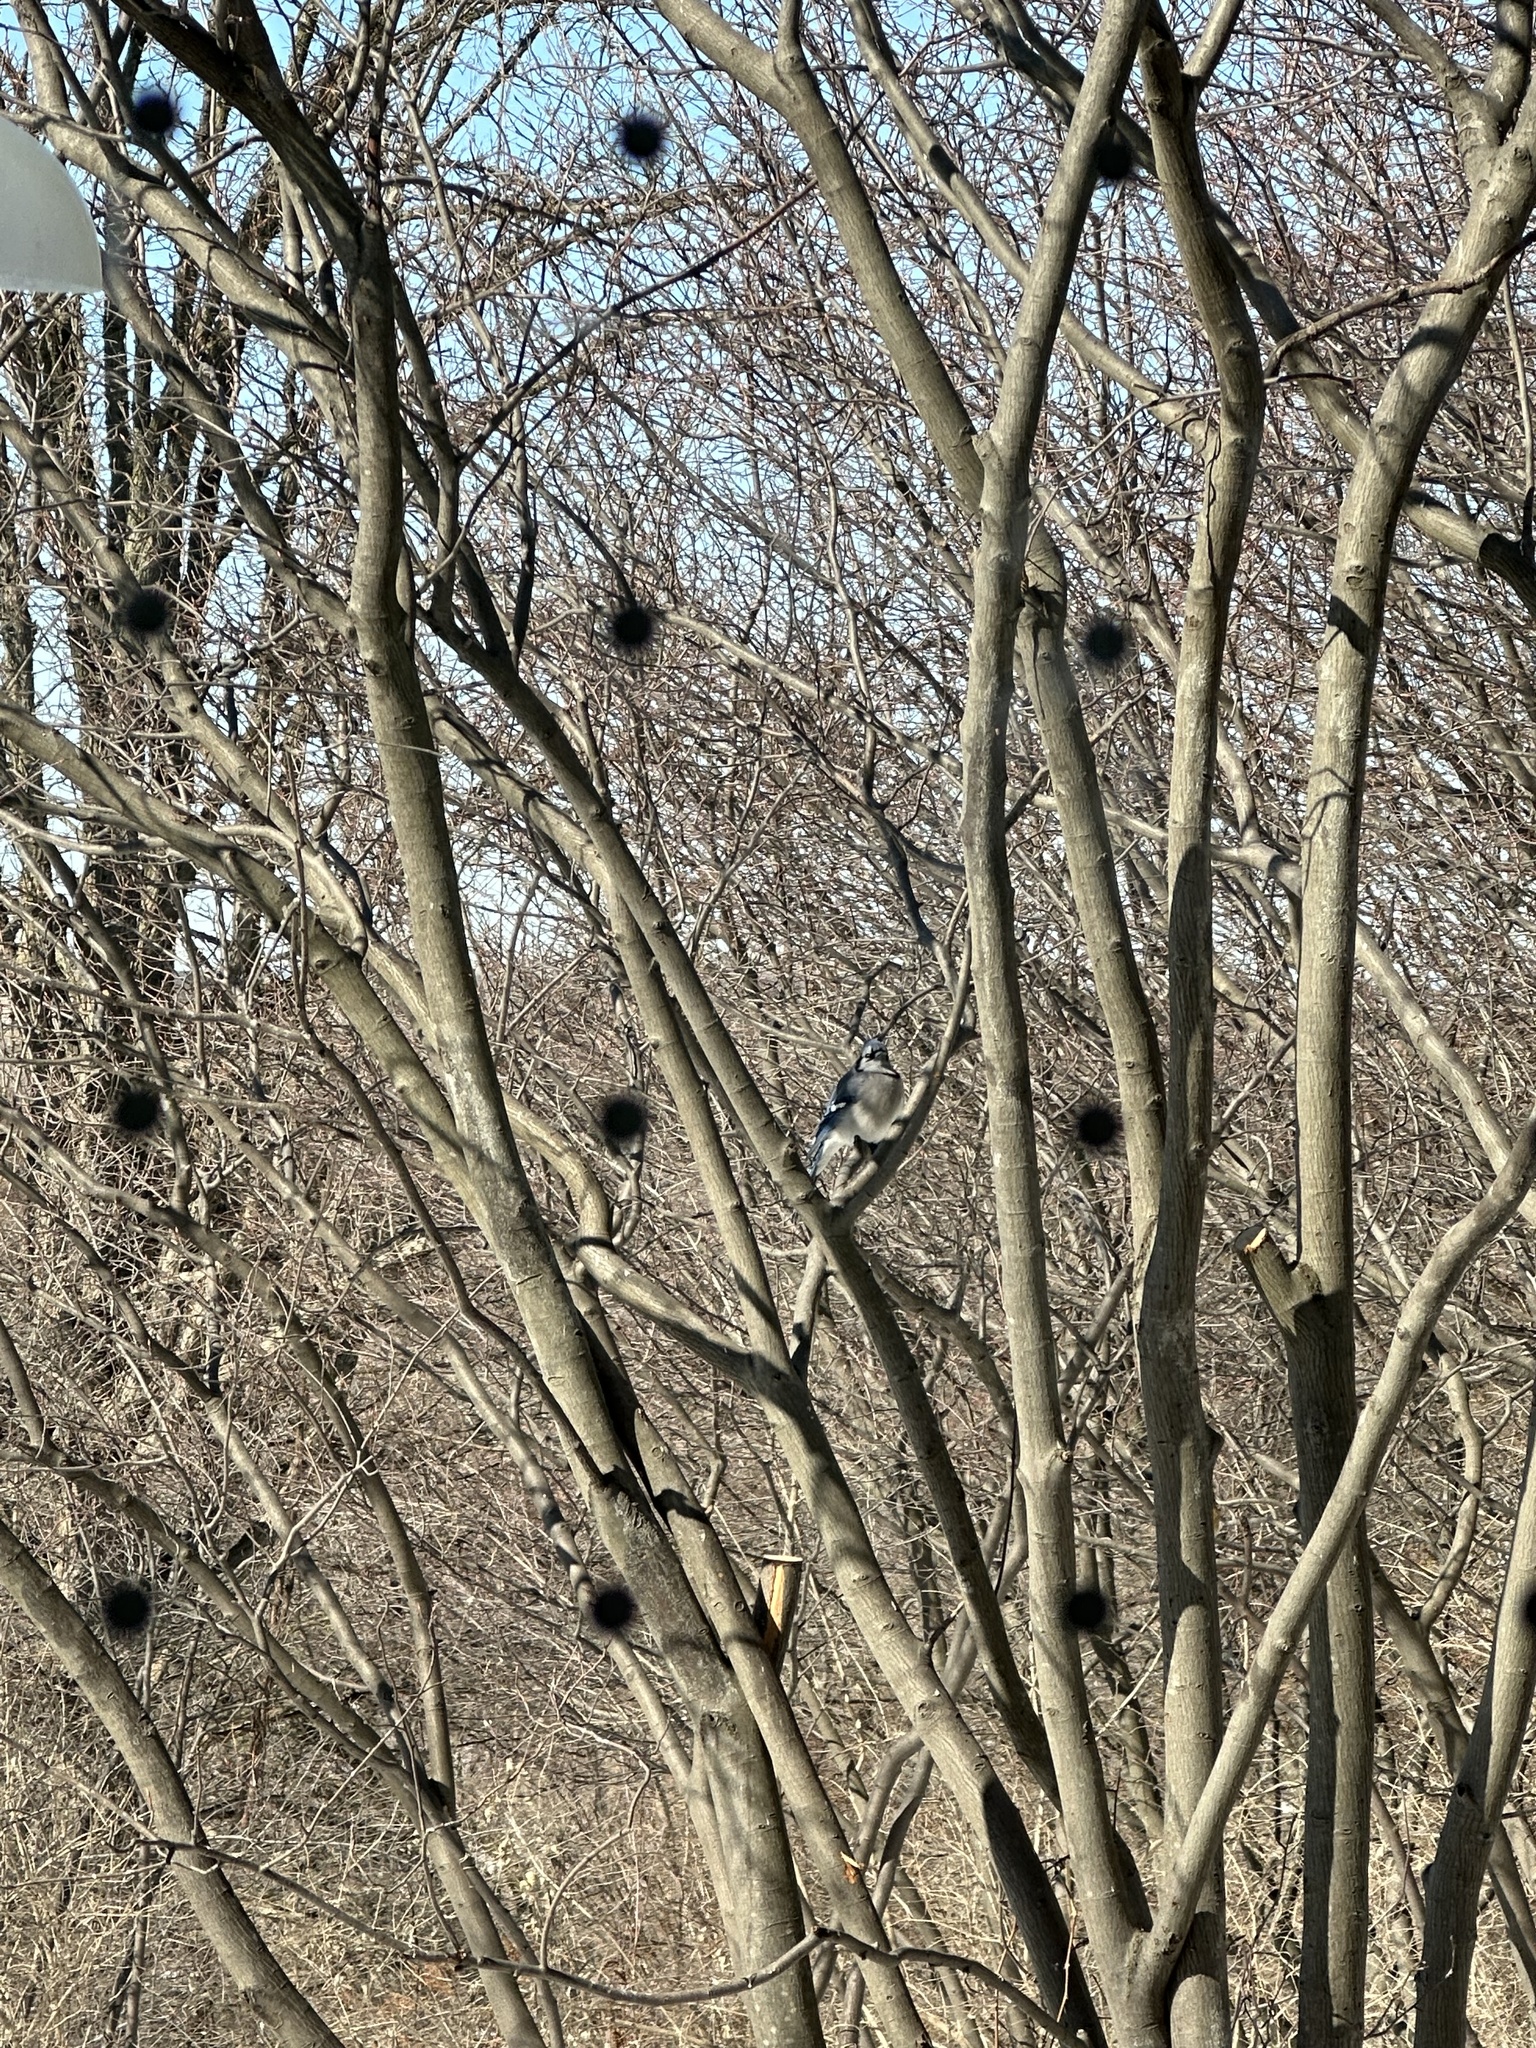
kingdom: Animalia
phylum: Chordata
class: Aves
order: Passeriformes
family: Corvidae
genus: Cyanocitta
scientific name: Cyanocitta cristata
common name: Blue jay
